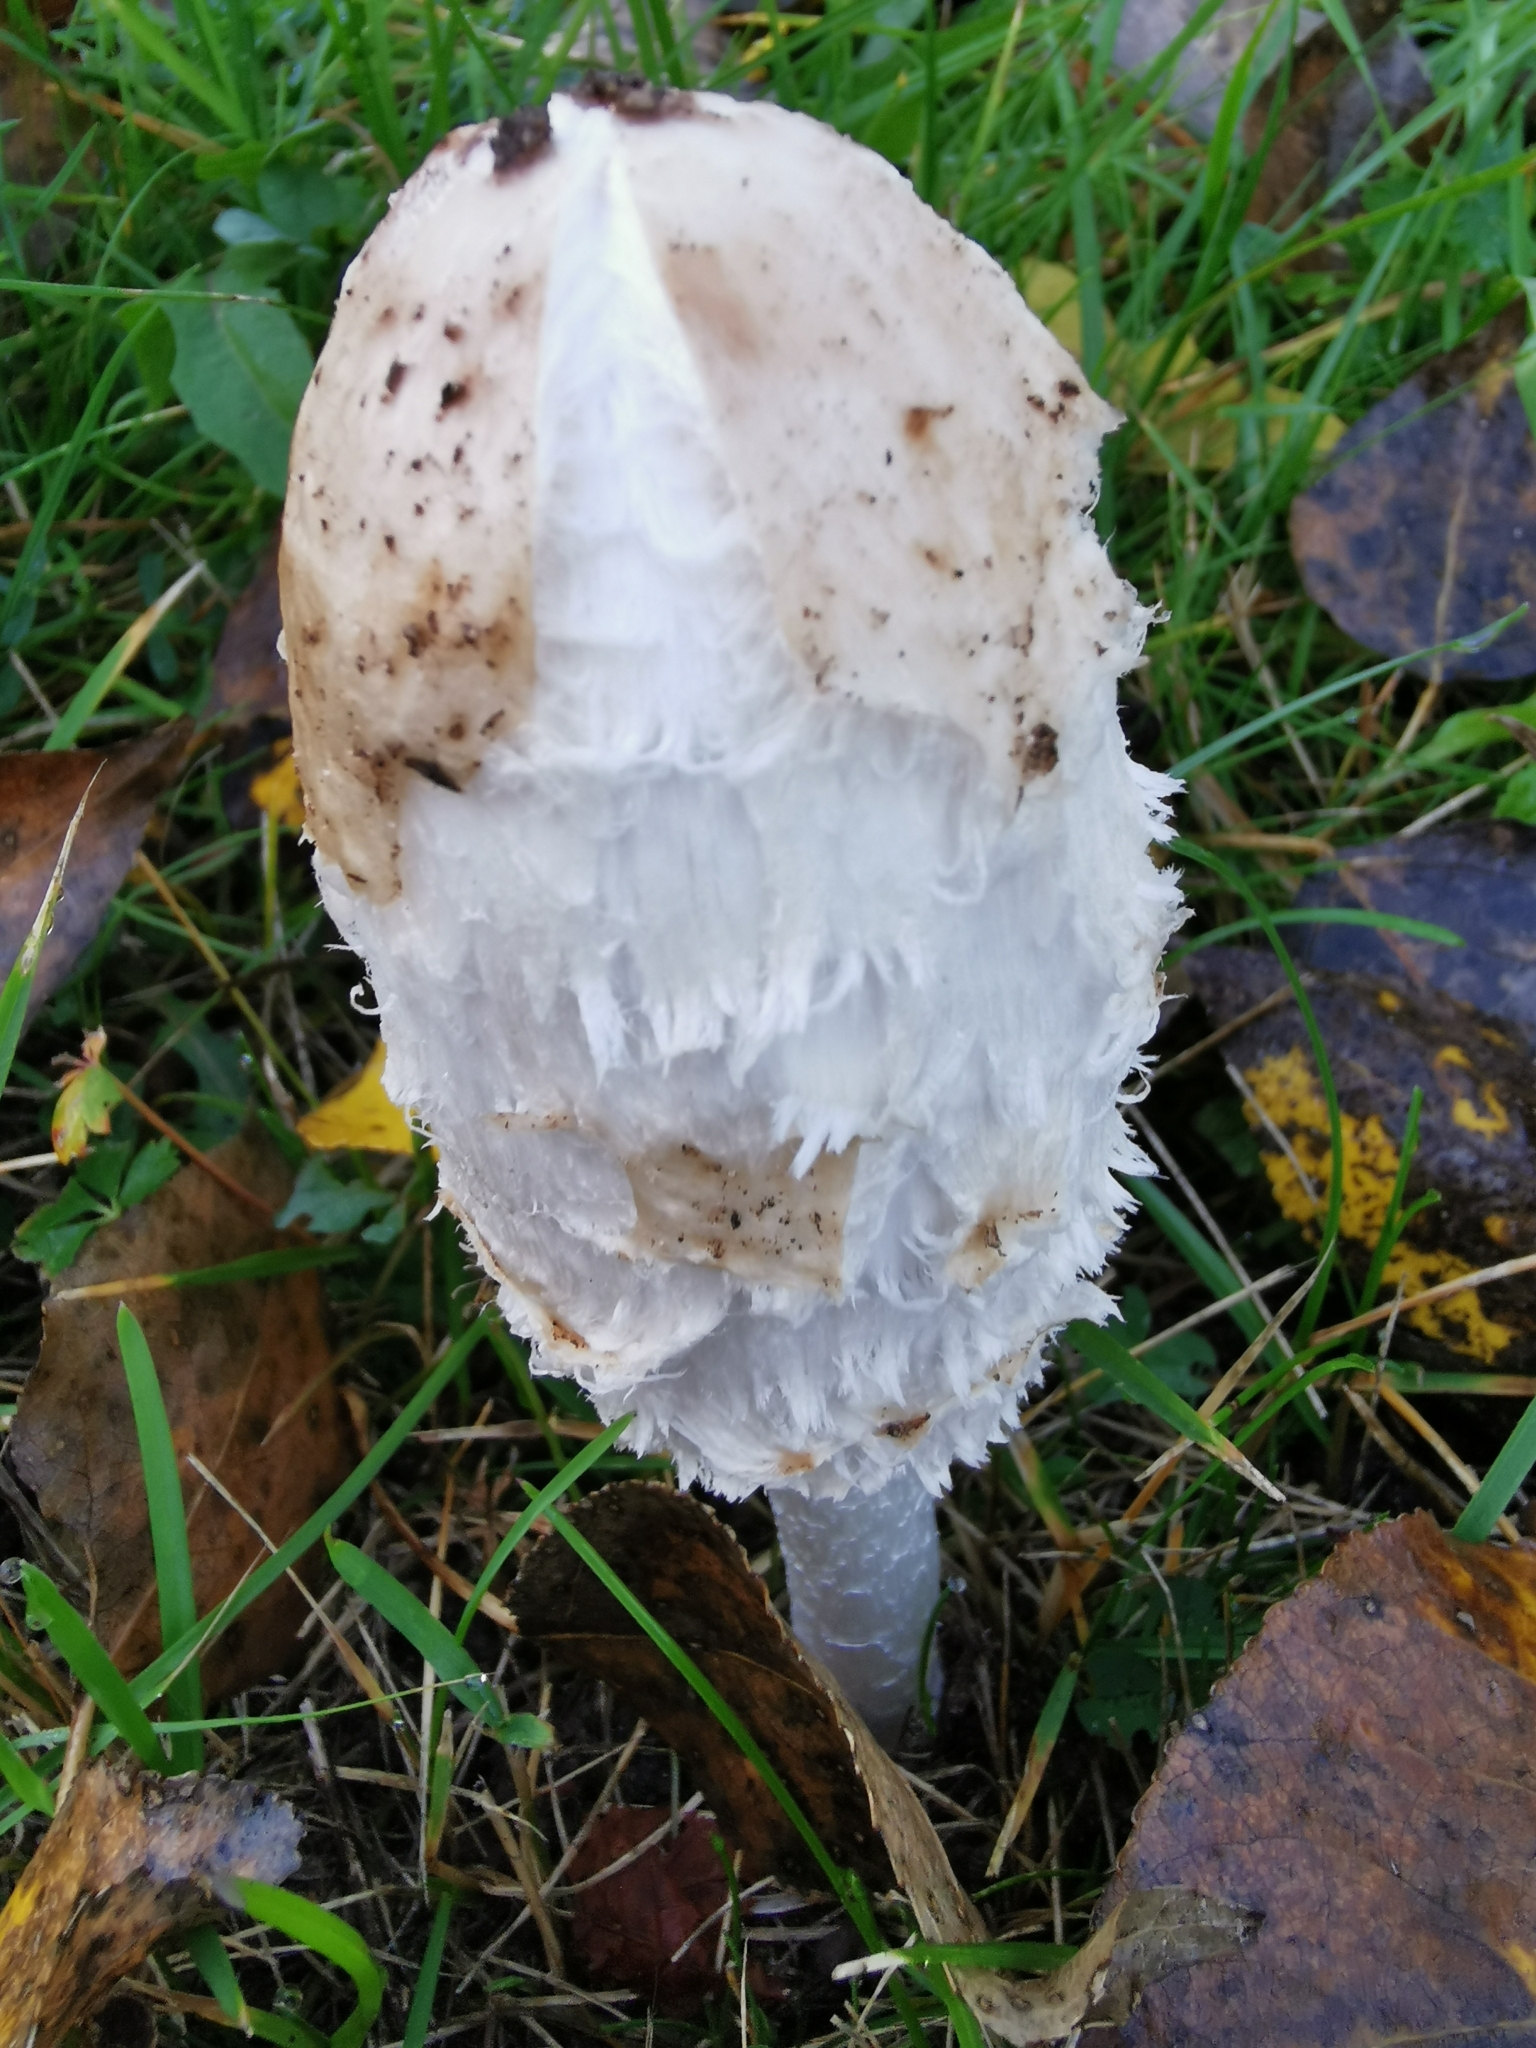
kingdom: Fungi
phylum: Basidiomycota
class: Agaricomycetes
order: Agaricales
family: Agaricaceae
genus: Coprinus
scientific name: Coprinus comatus
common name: Lawyer's wig
